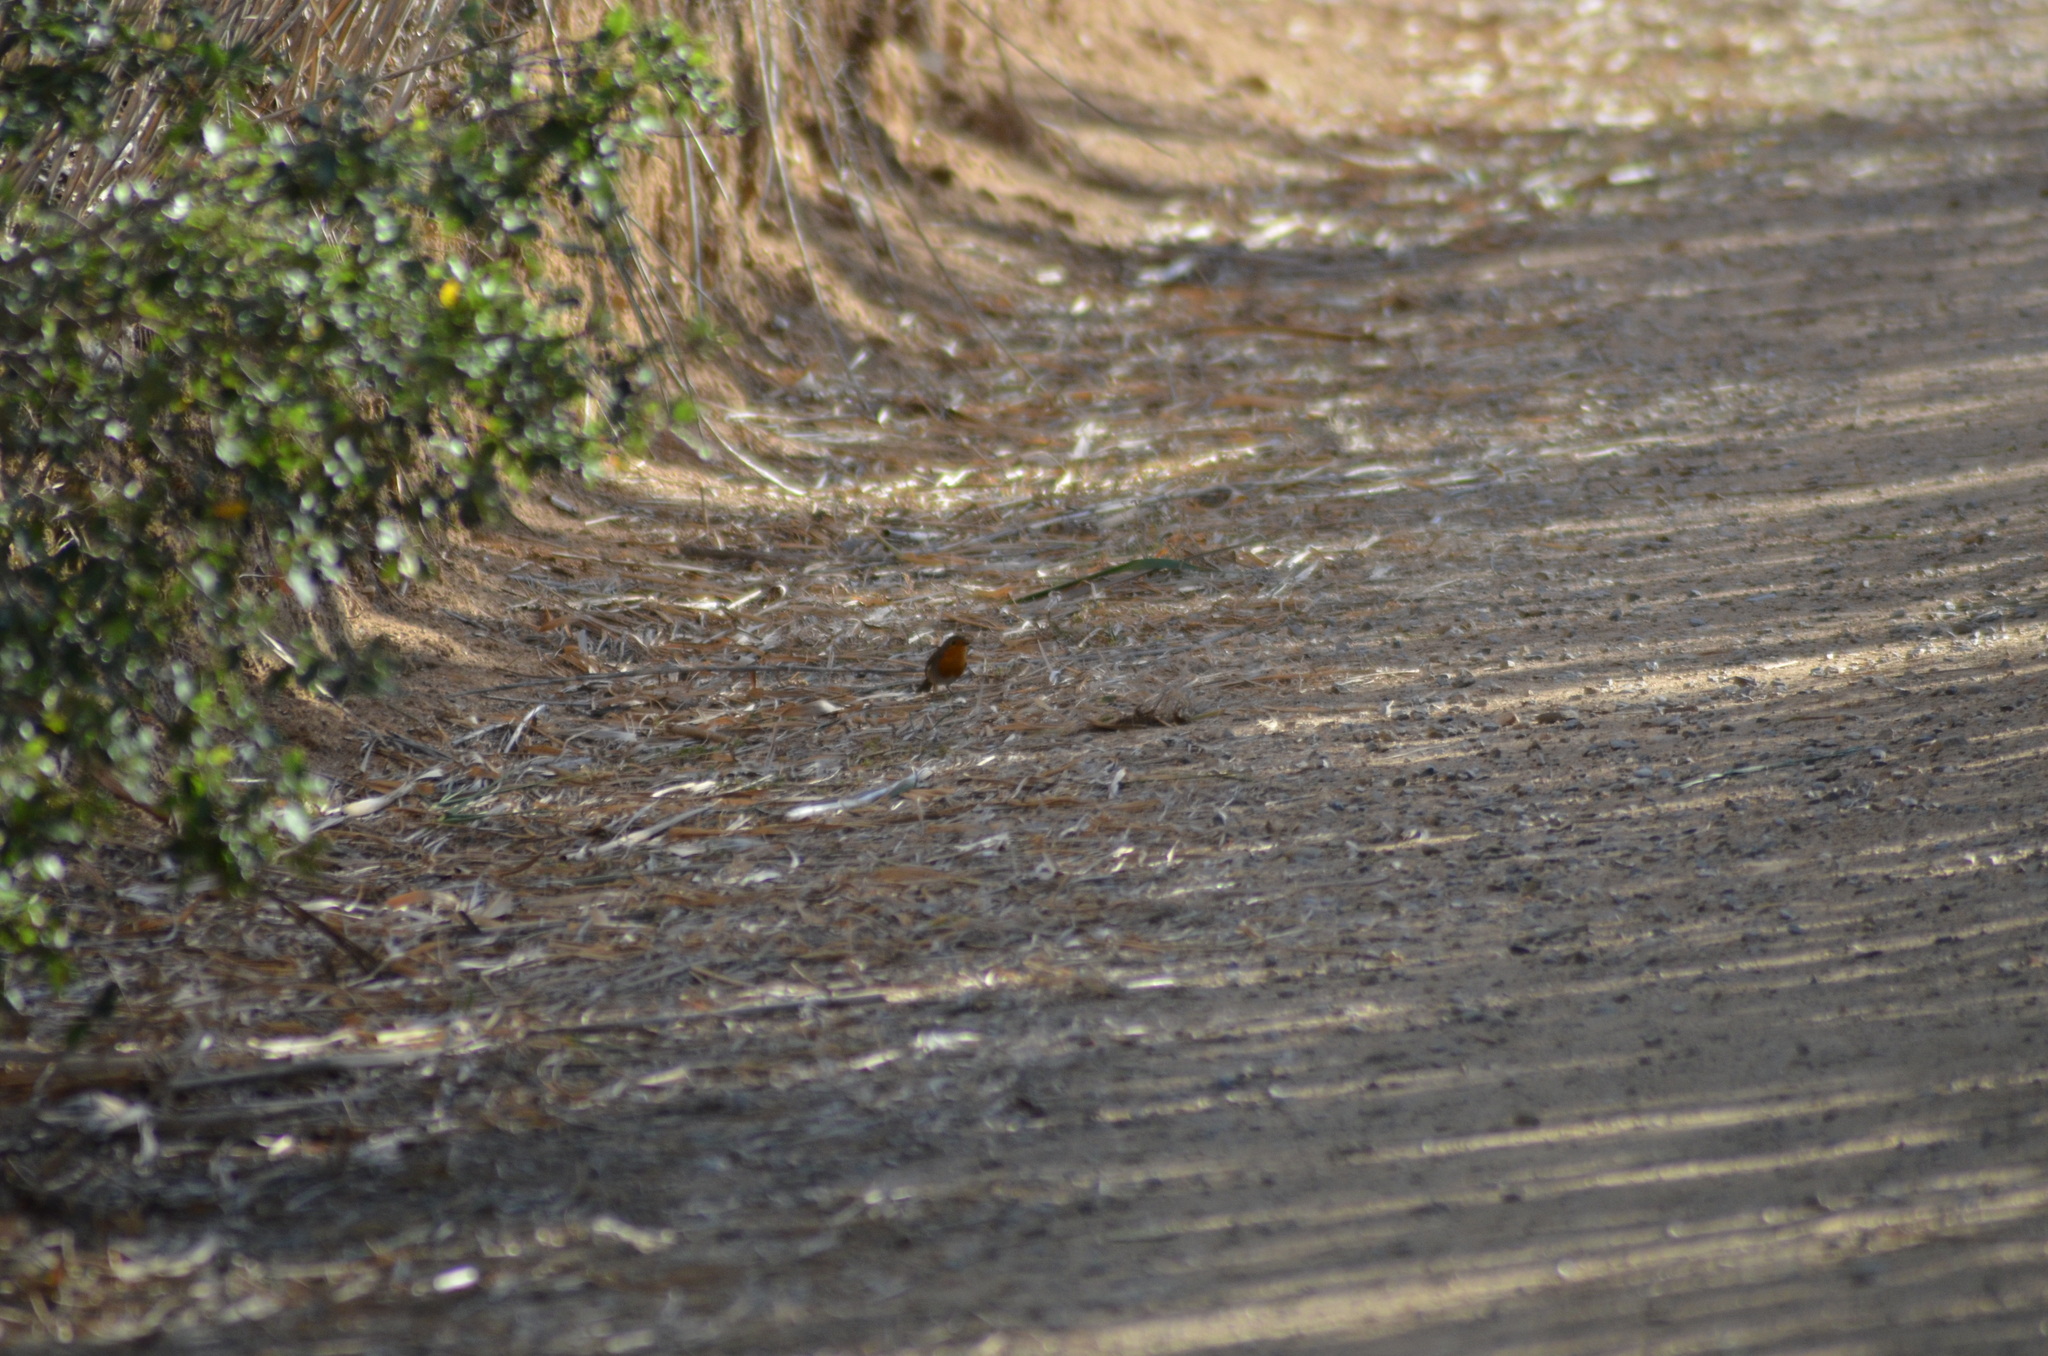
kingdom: Animalia
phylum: Chordata
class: Aves
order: Passeriformes
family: Muscicapidae
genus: Erithacus
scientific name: Erithacus rubecula
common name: European robin
